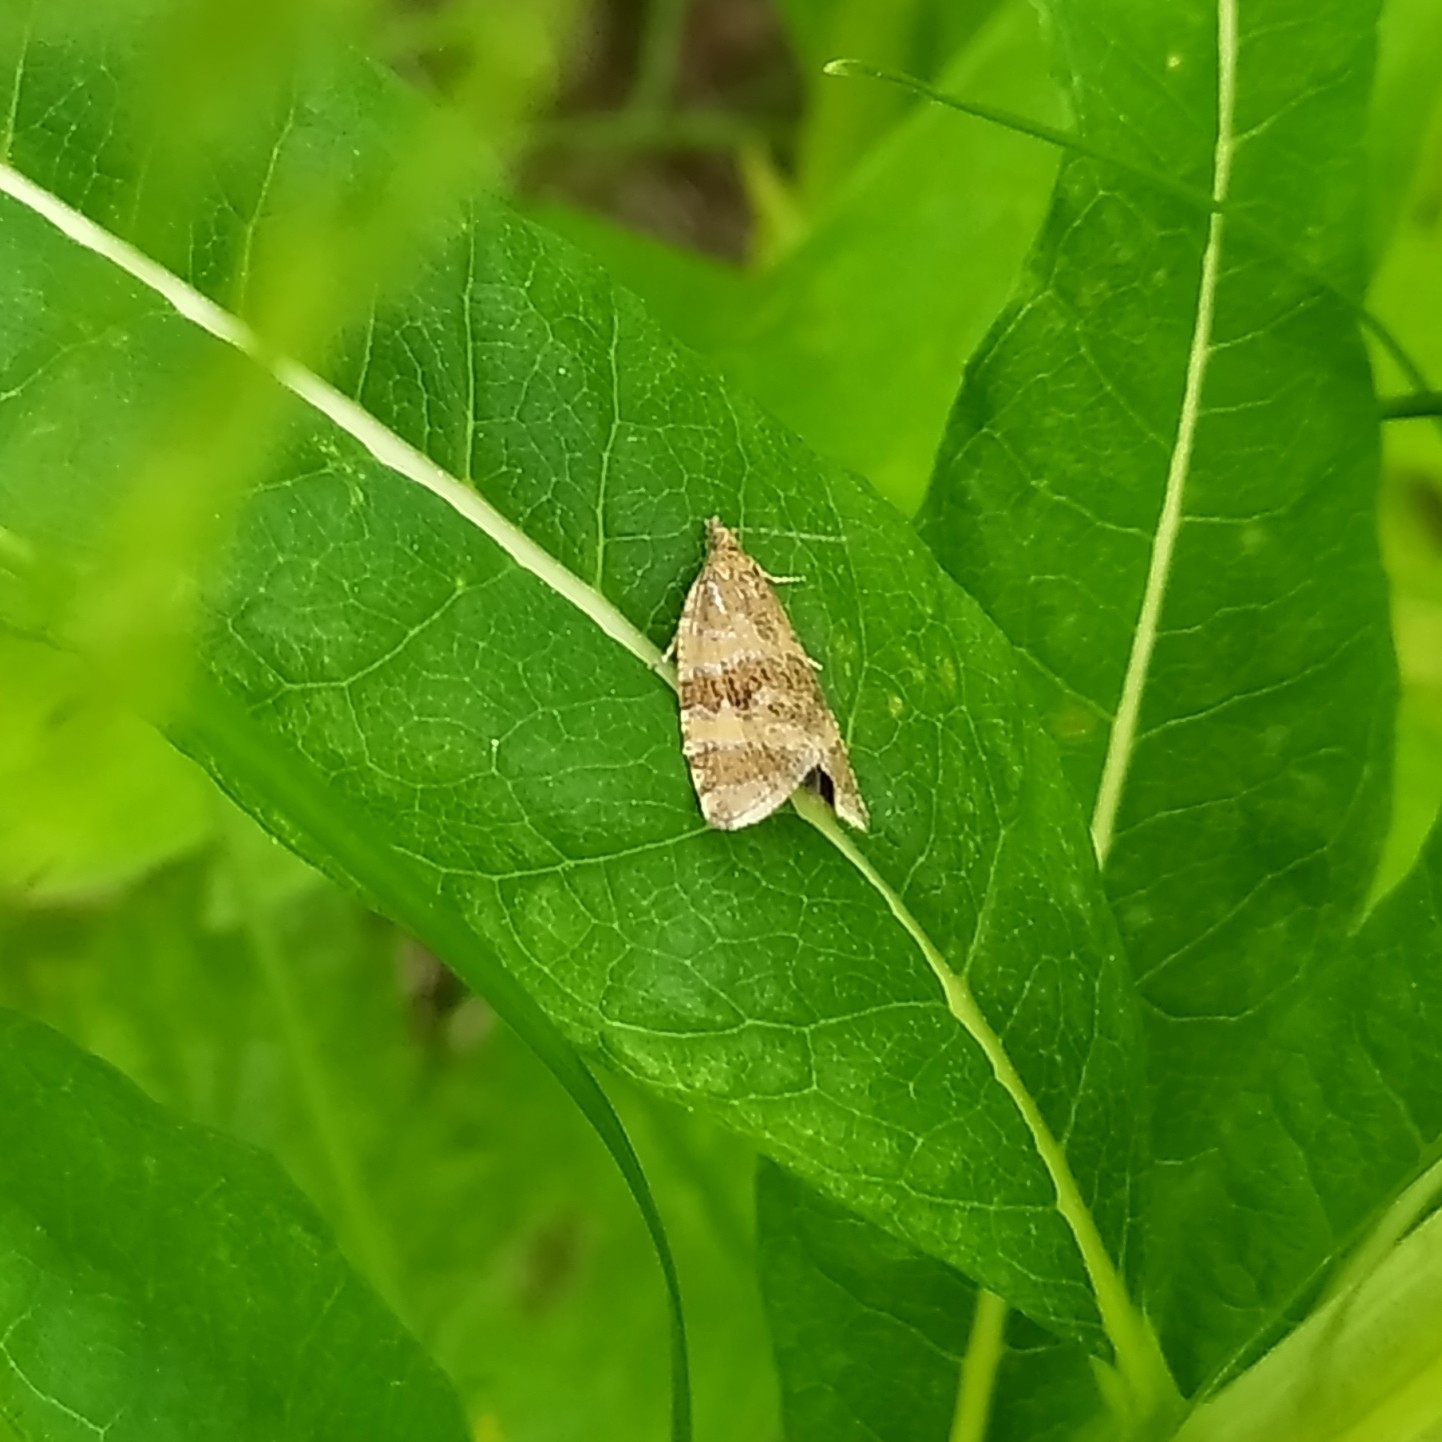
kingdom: Animalia
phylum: Arthropoda
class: Insecta
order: Lepidoptera
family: Tortricidae
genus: Olethreutes
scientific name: Olethreutes metallicana
